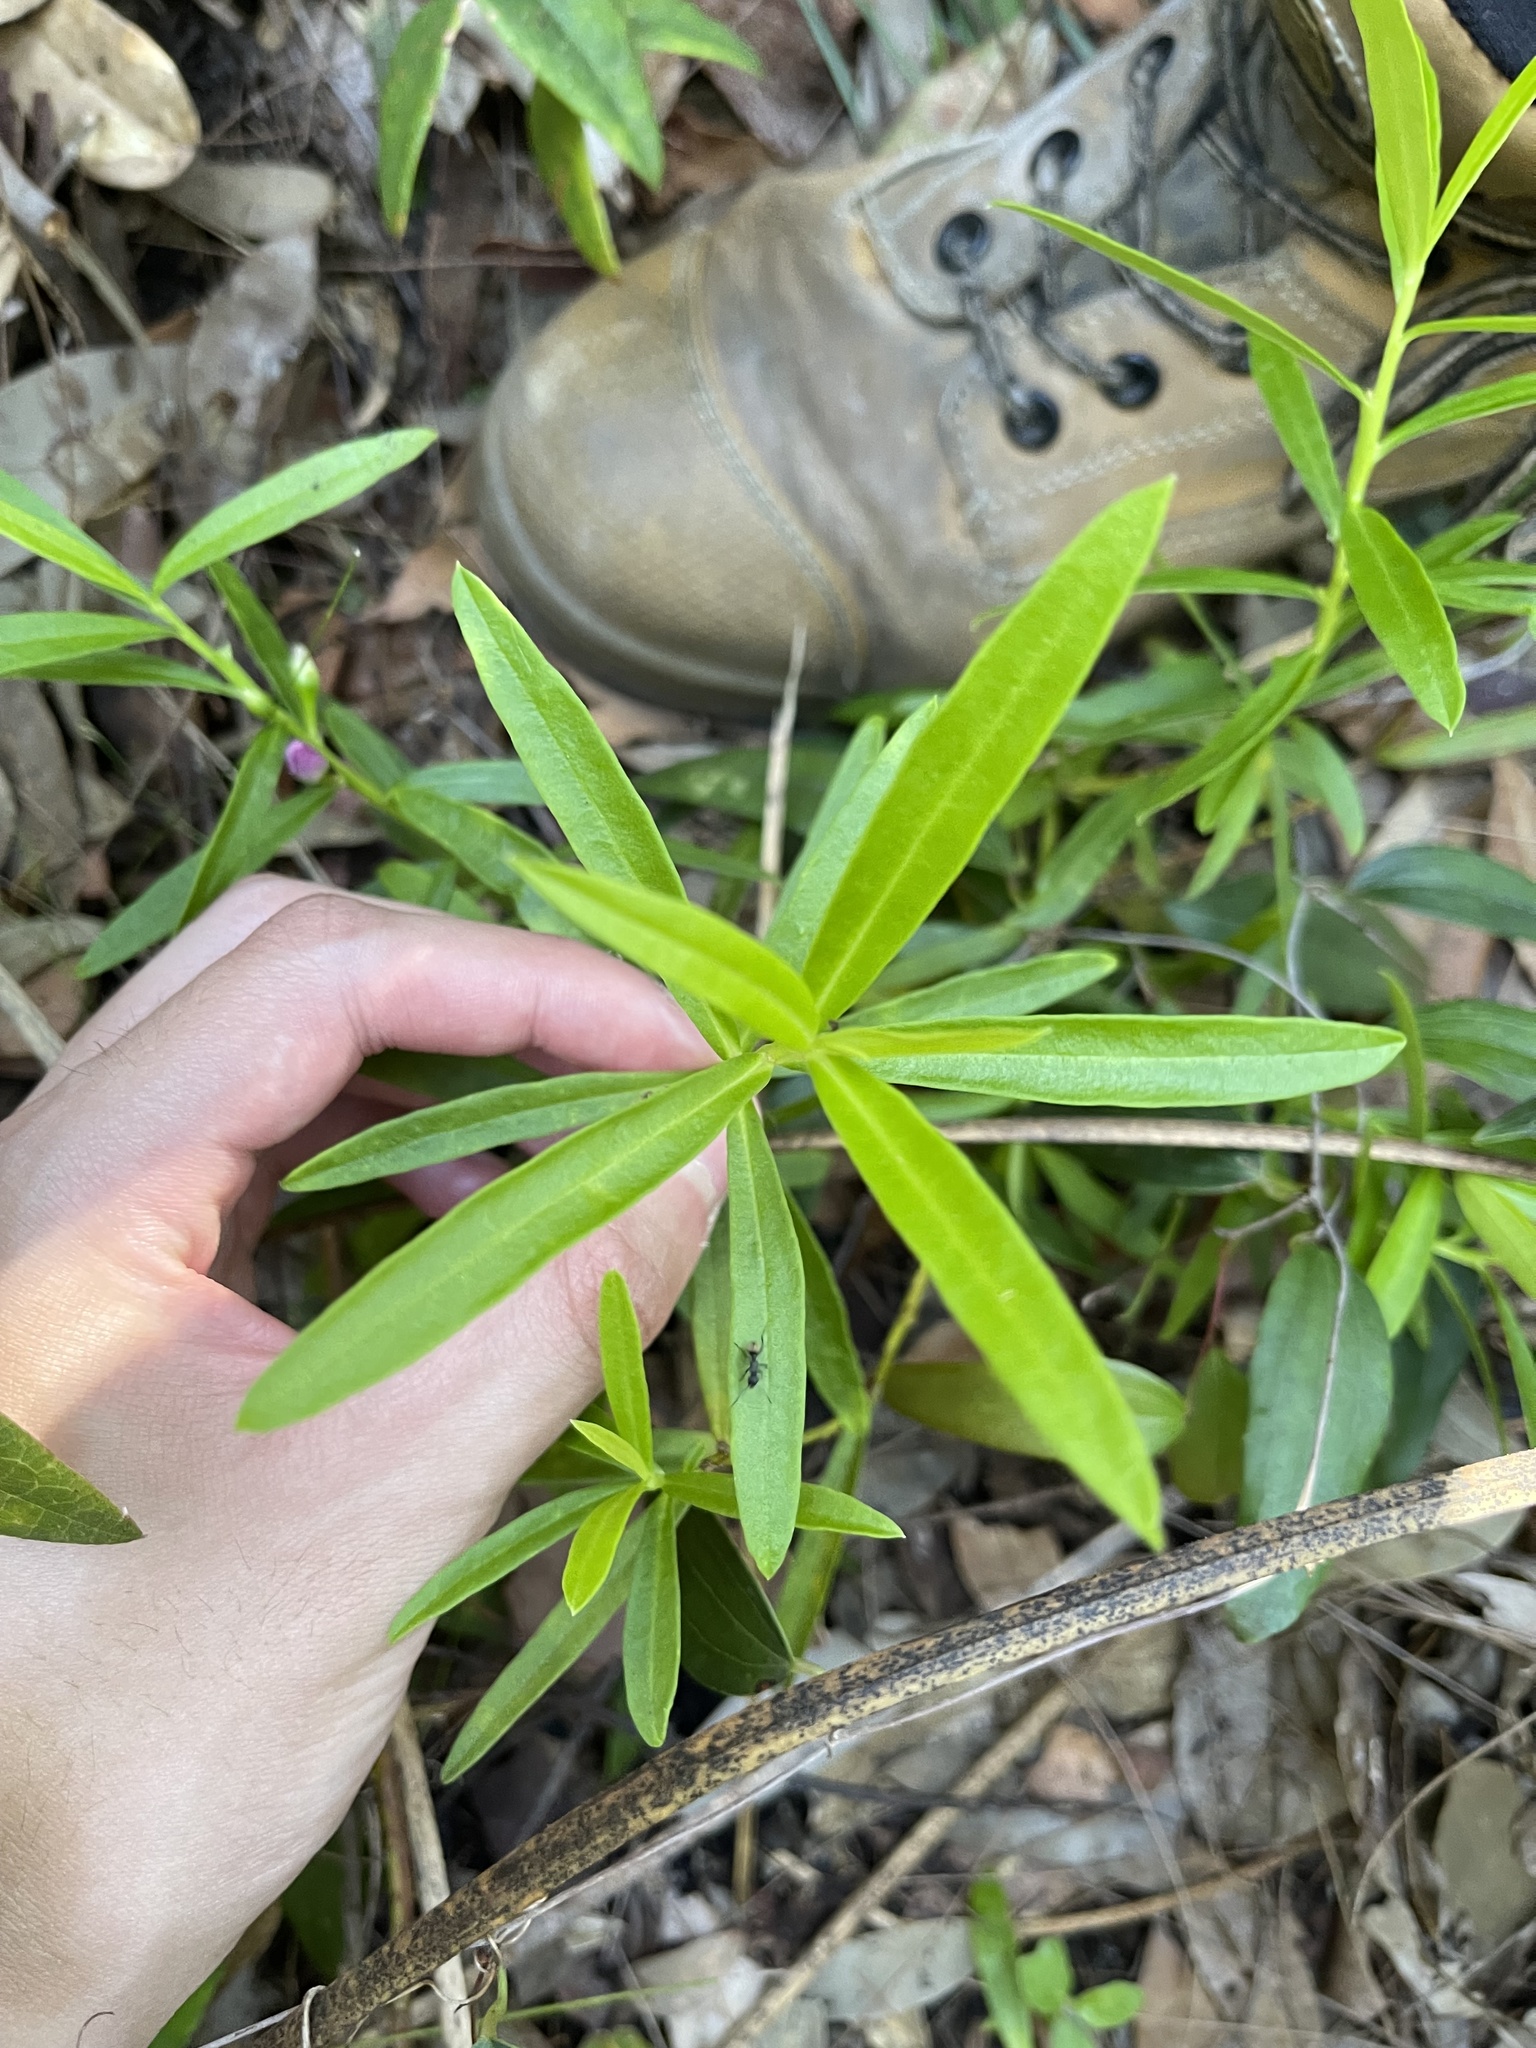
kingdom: Plantae
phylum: Tracheophyta
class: Magnoliopsida
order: Sapindales
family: Rutaceae
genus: Crowea
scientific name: Crowea saligna
